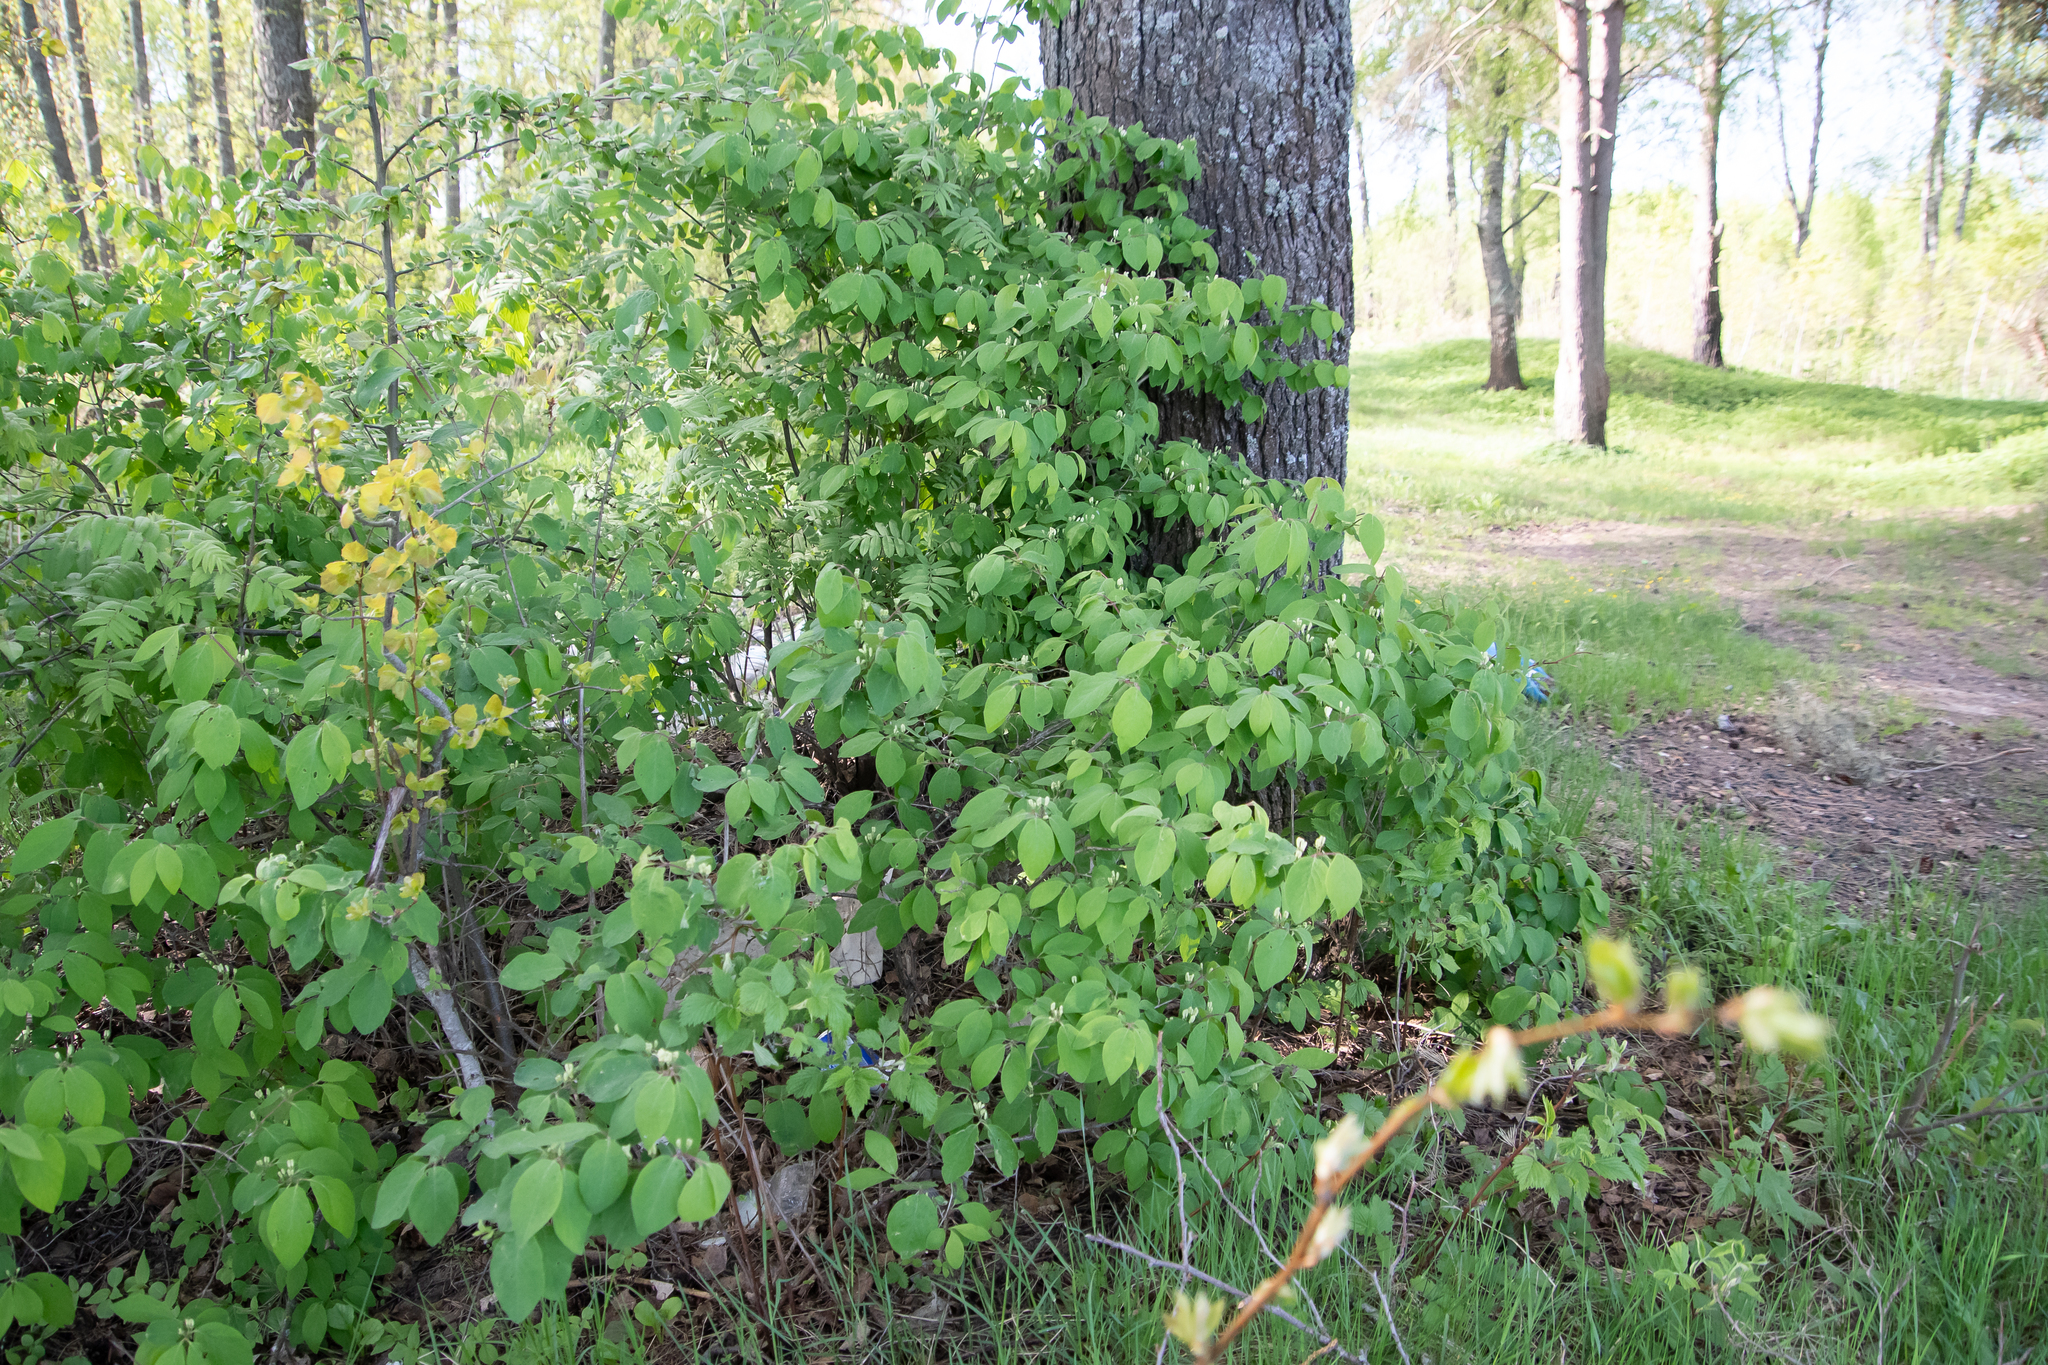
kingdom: Plantae
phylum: Tracheophyta
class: Magnoliopsida
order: Dipsacales
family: Caprifoliaceae
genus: Lonicera
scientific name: Lonicera xylosteum
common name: Fly honeysuckle
